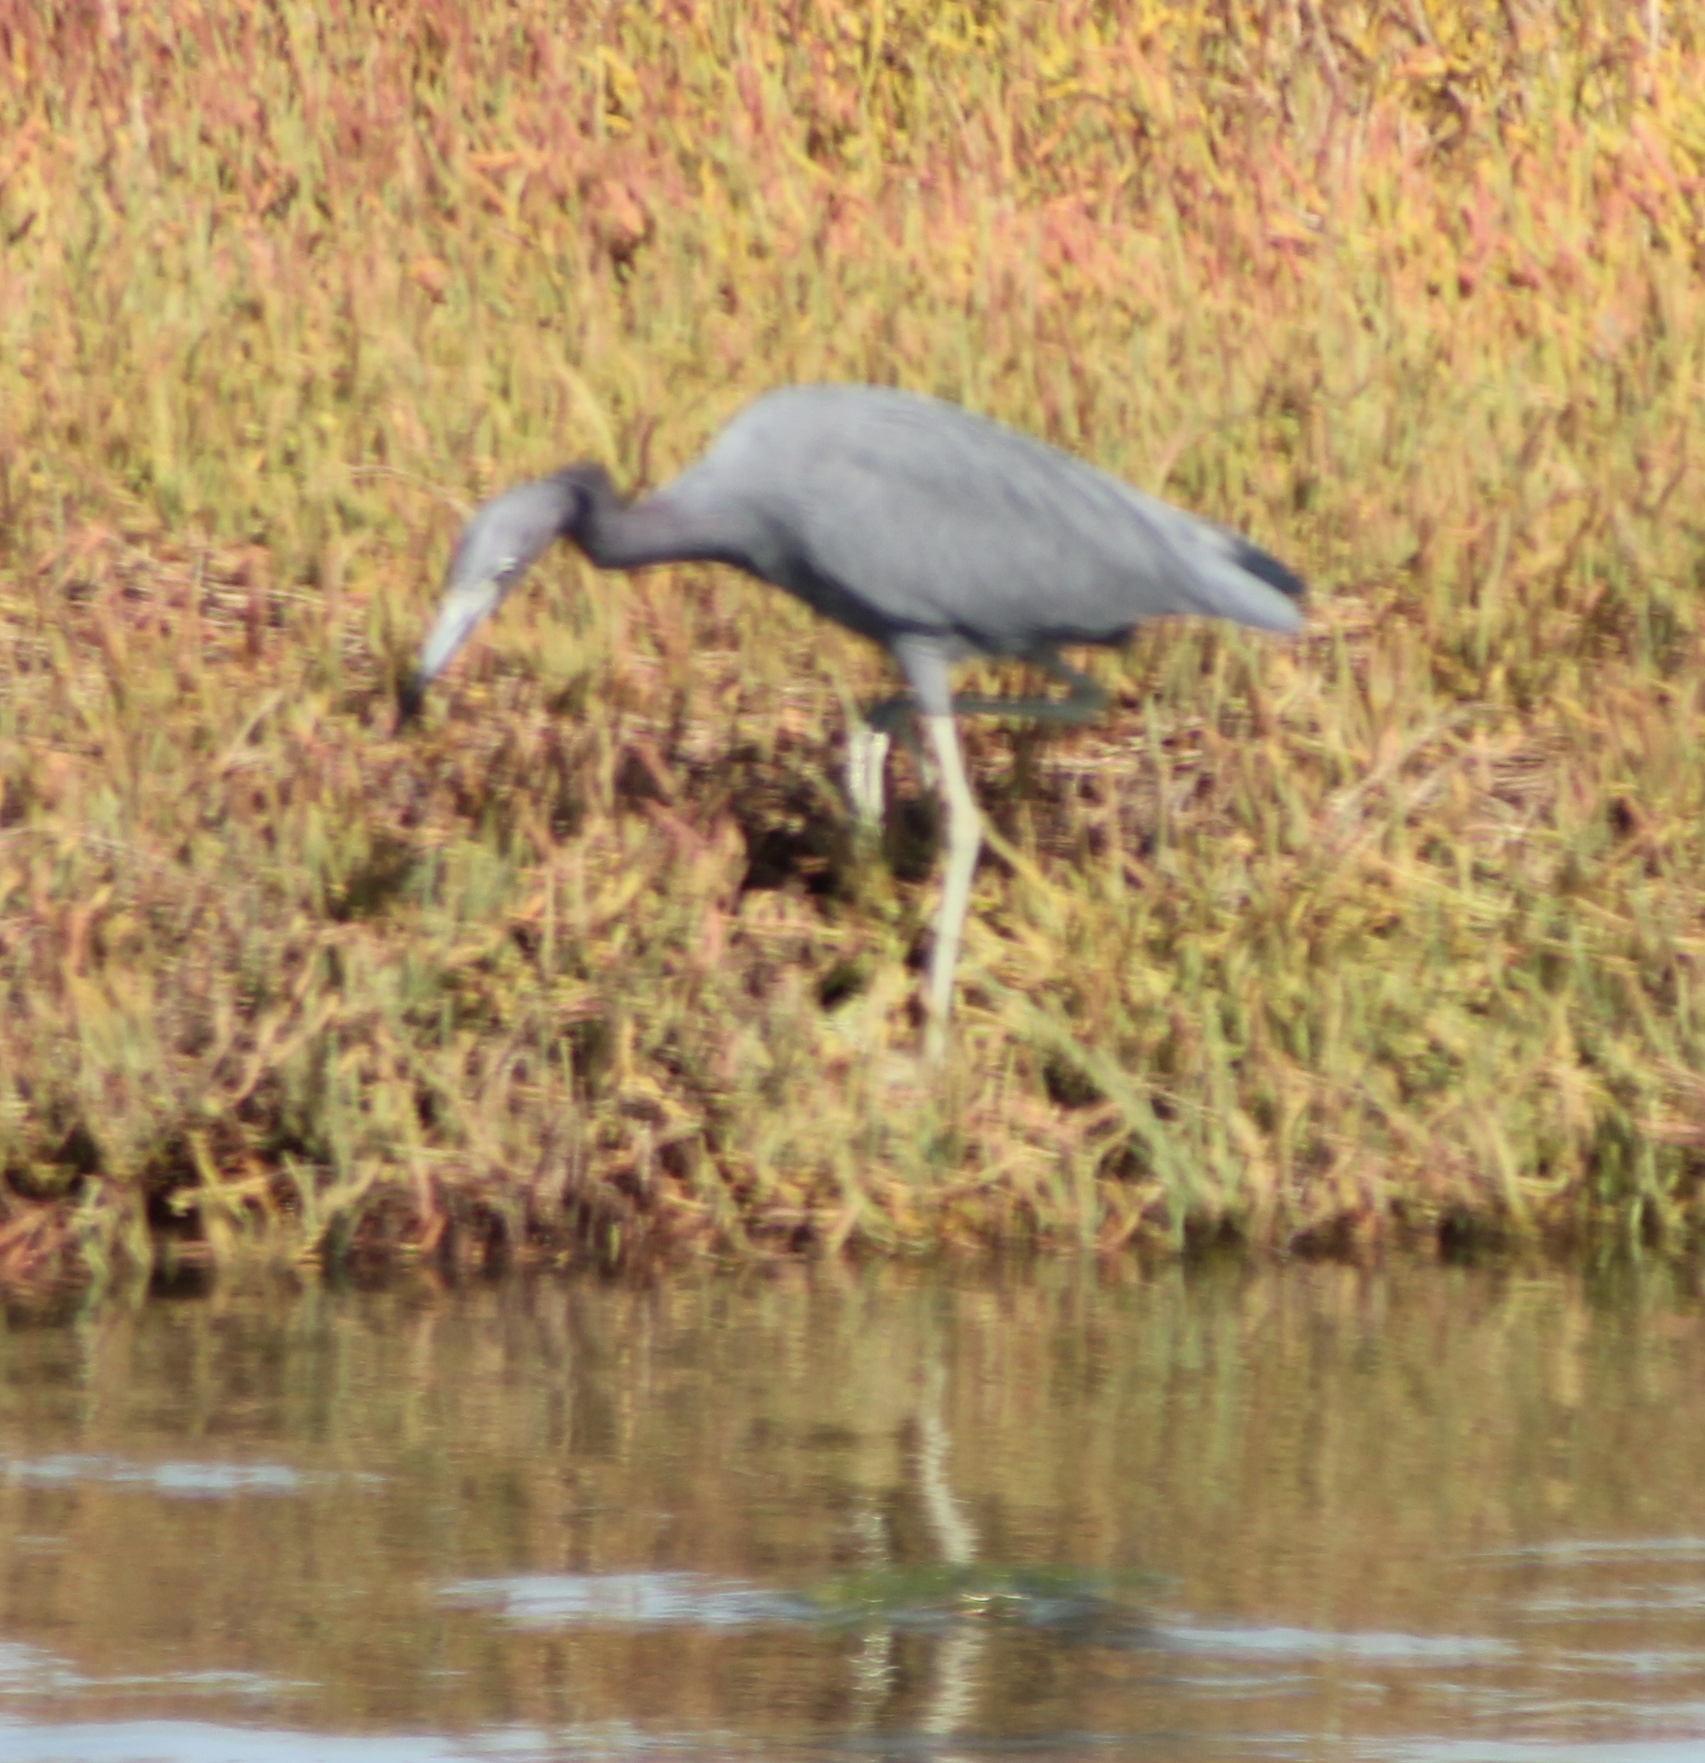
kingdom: Animalia
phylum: Chordata
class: Aves
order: Pelecaniformes
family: Ardeidae
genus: Egretta
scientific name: Egretta caerulea
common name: Little blue heron
